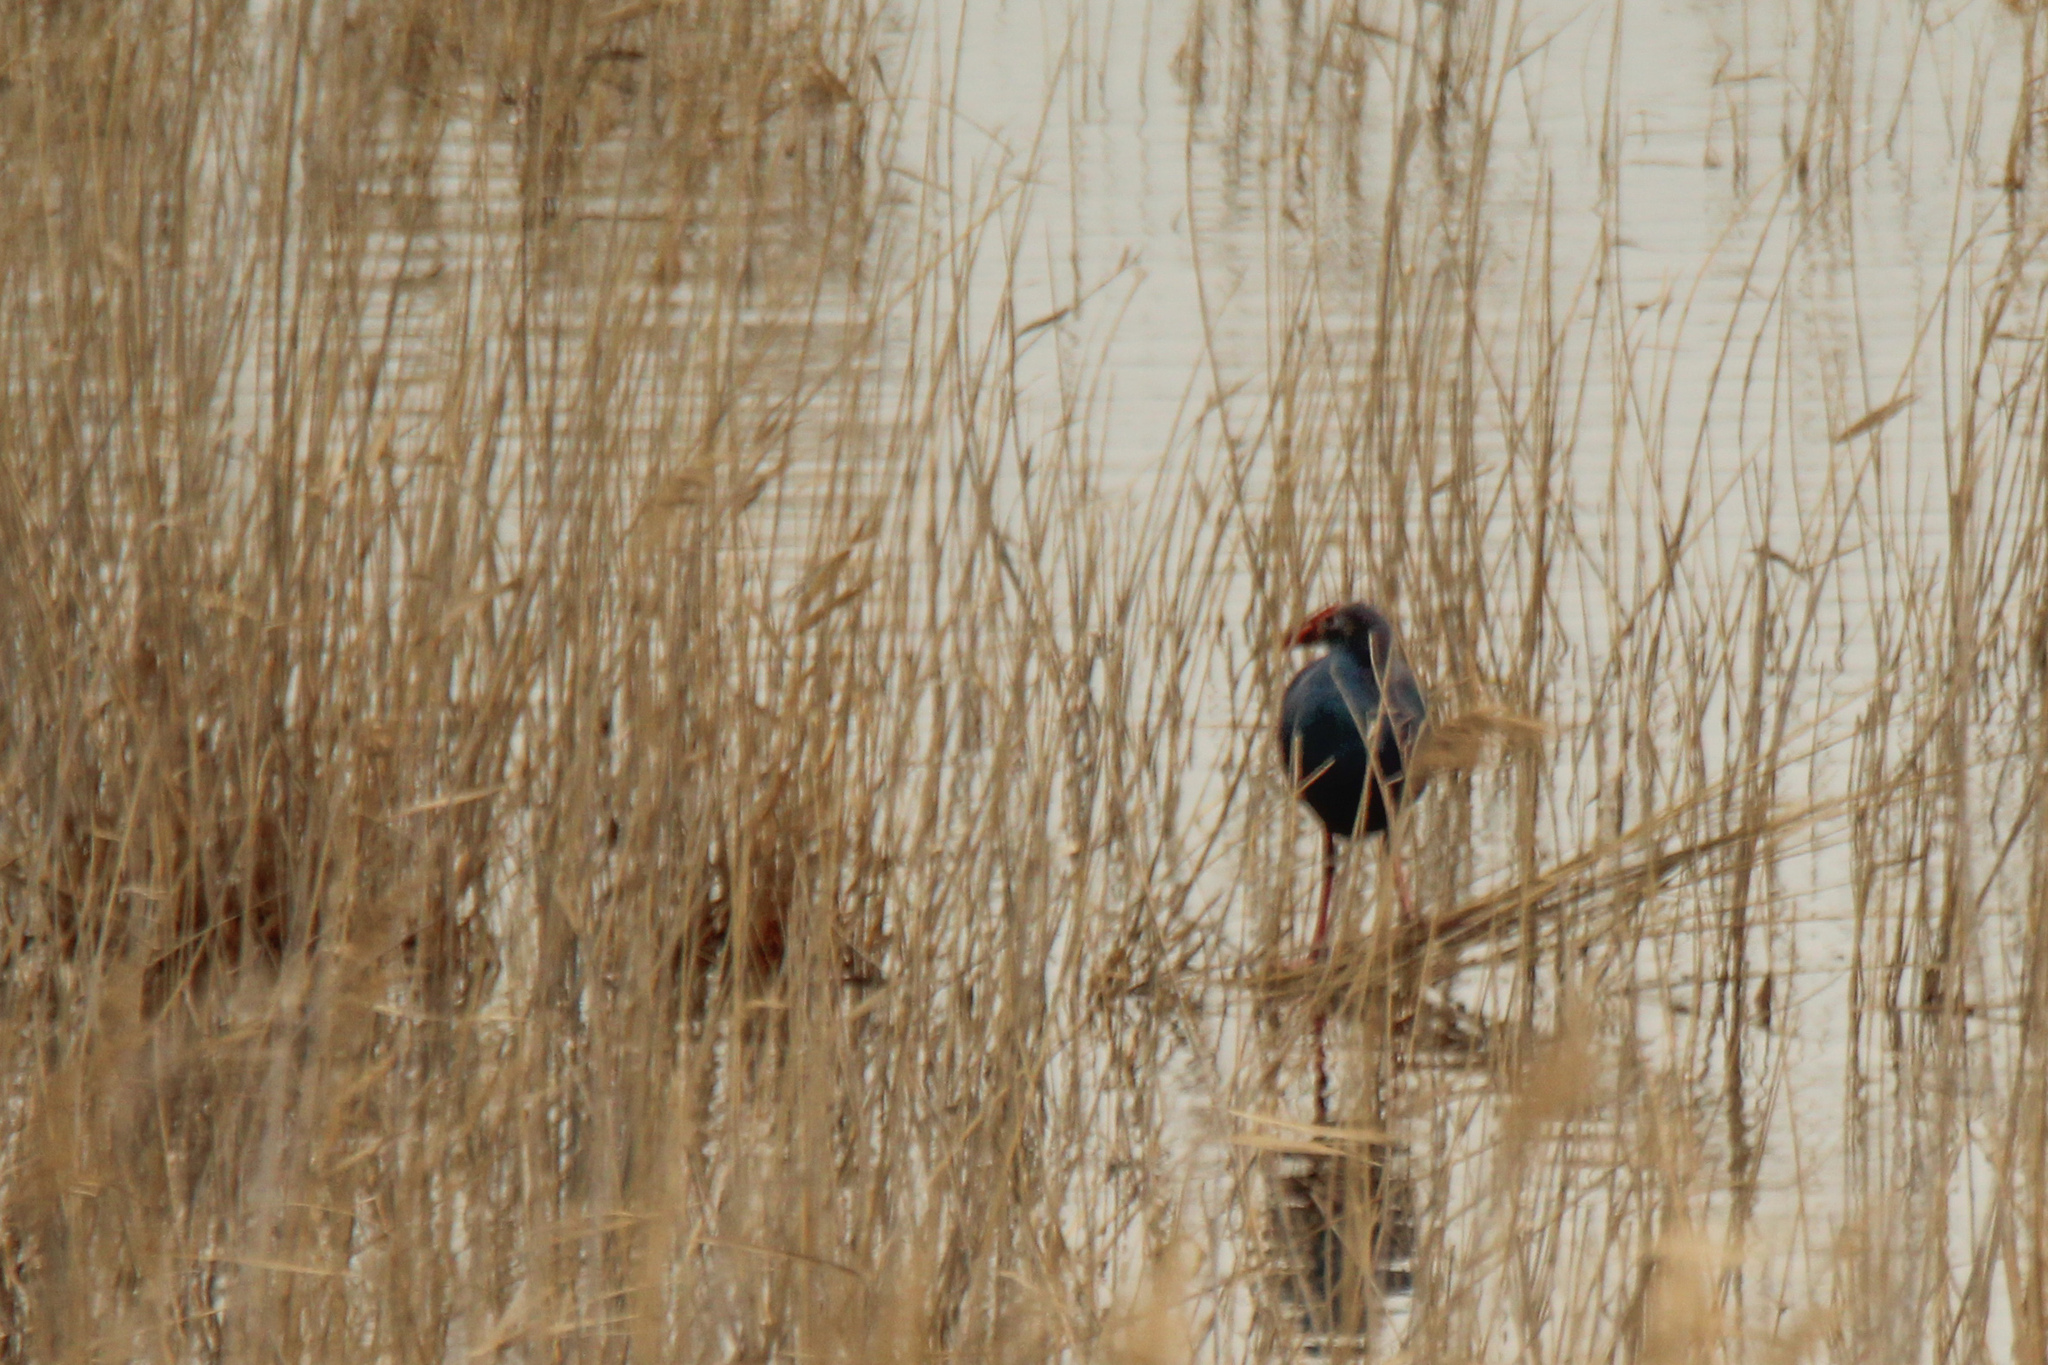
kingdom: Animalia
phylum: Chordata
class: Aves
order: Gruiformes
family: Rallidae
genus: Porphyrio
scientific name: Porphyrio porphyrio
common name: Purple swamphen
